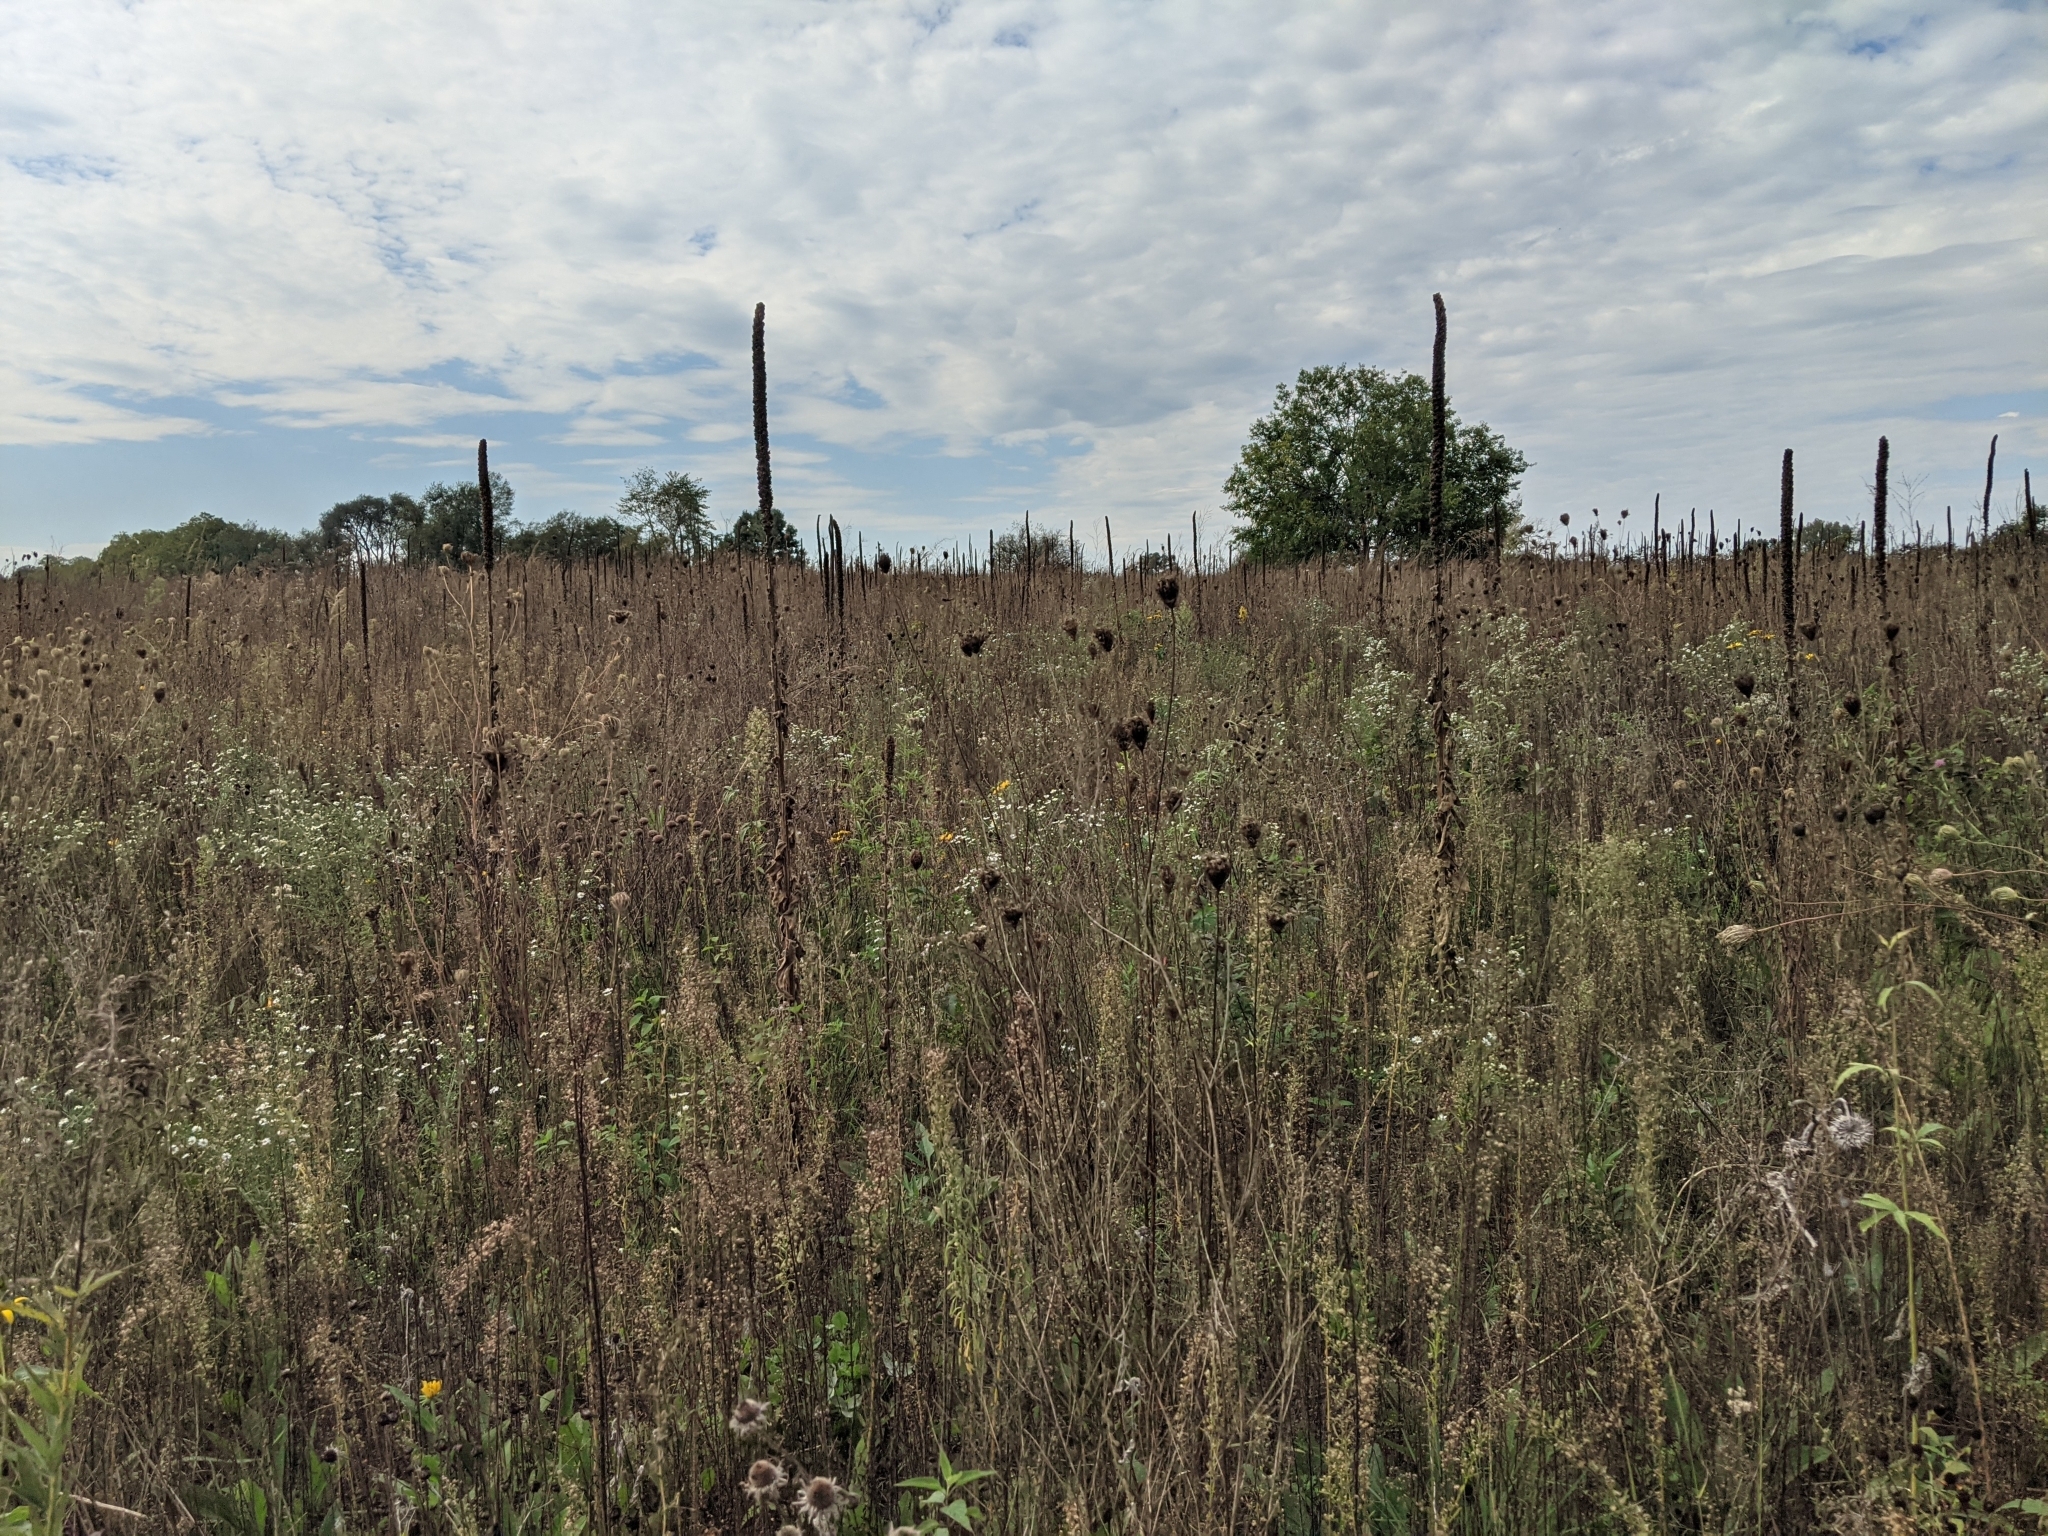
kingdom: Plantae
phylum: Tracheophyta
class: Magnoliopsida
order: Lamiales
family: Scrophulariaceae
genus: Verbascum
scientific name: Verbascum thapsus
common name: Common mullein
